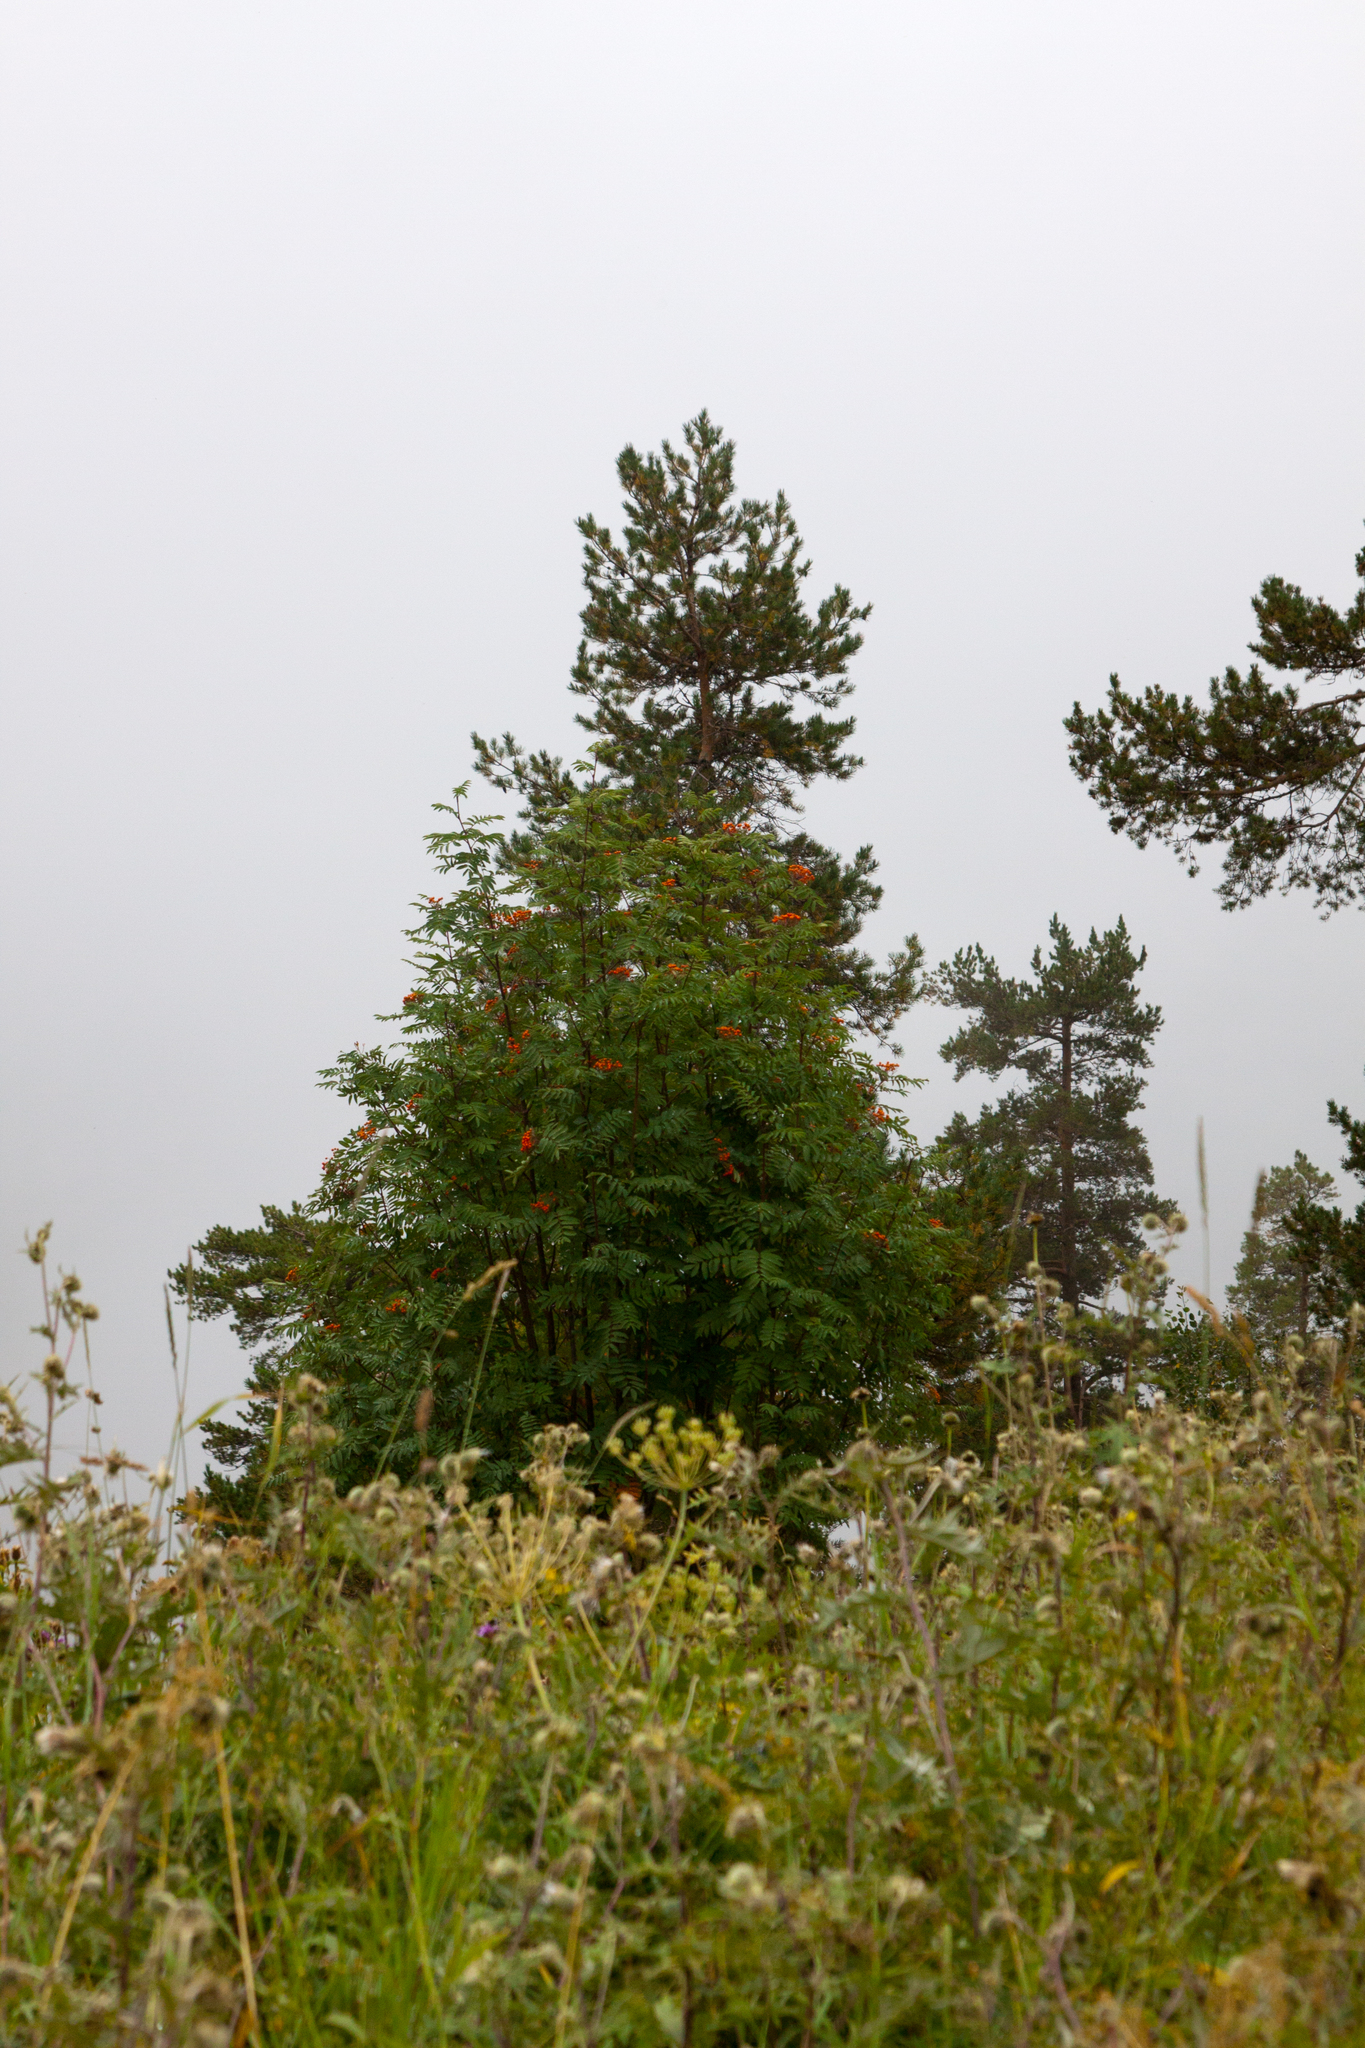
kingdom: Plantae
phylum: Tracheophyta
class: Magnoliopsida
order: Rosales
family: Rosaceae
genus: Sorbus
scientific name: Sorbus aucuparia
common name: Rowan
